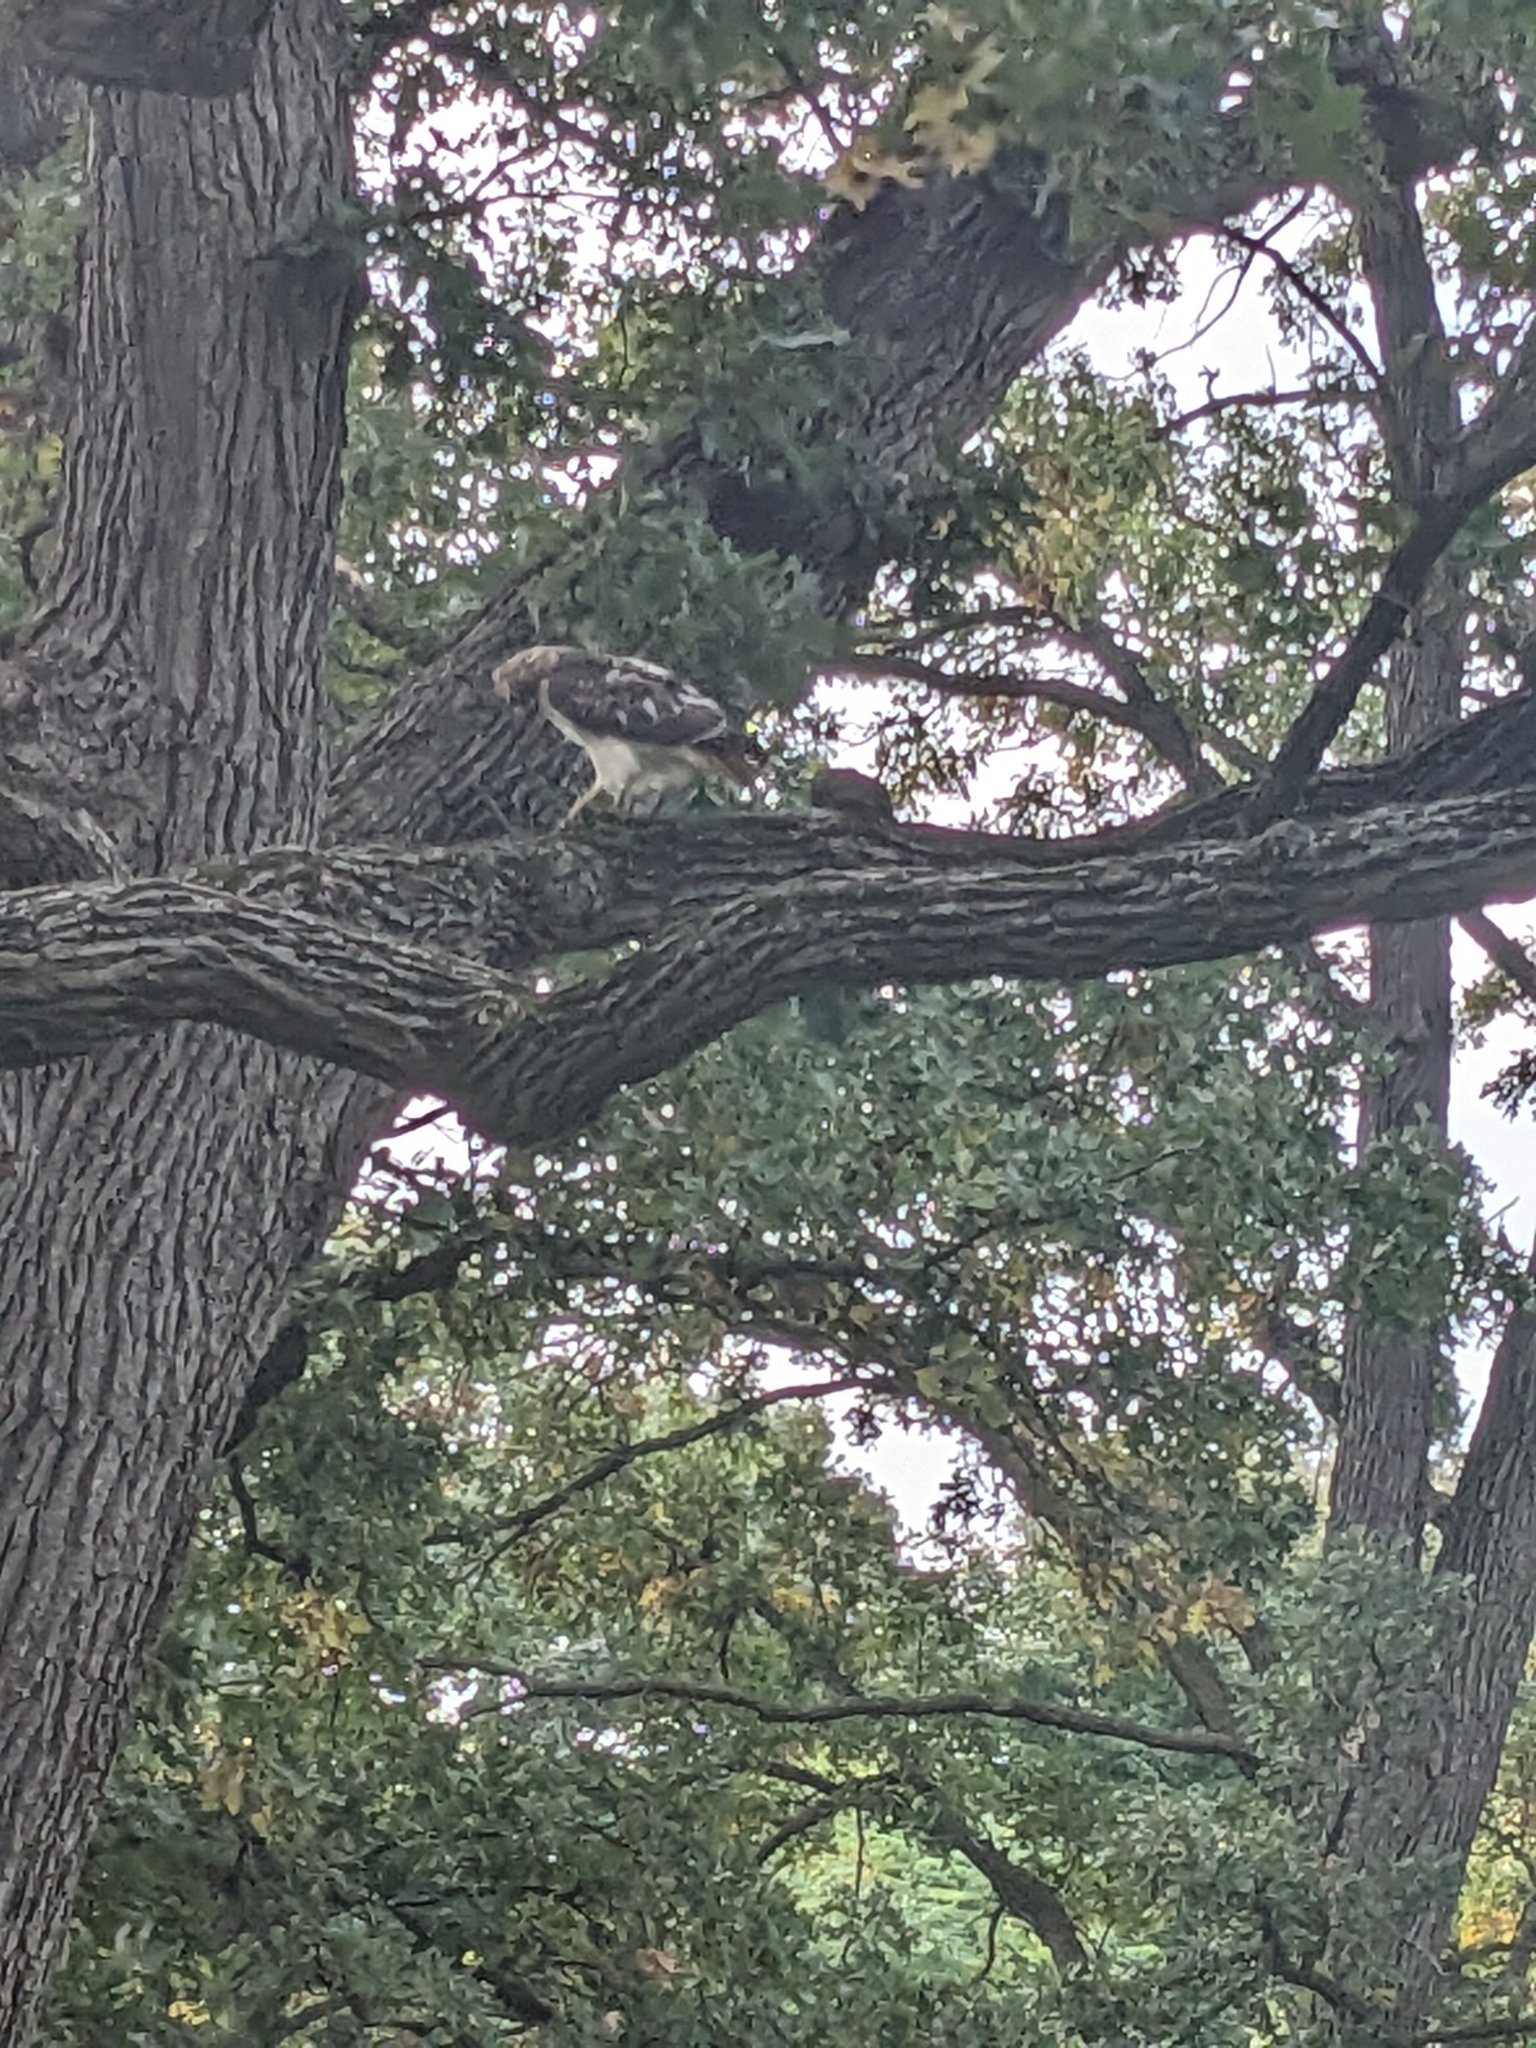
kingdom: Animalia
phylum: Chordata
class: Aves
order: Accipitriformes
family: Accipitridae
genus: Buteo
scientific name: Buteo jamaicensis
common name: Red-tailed hawk
